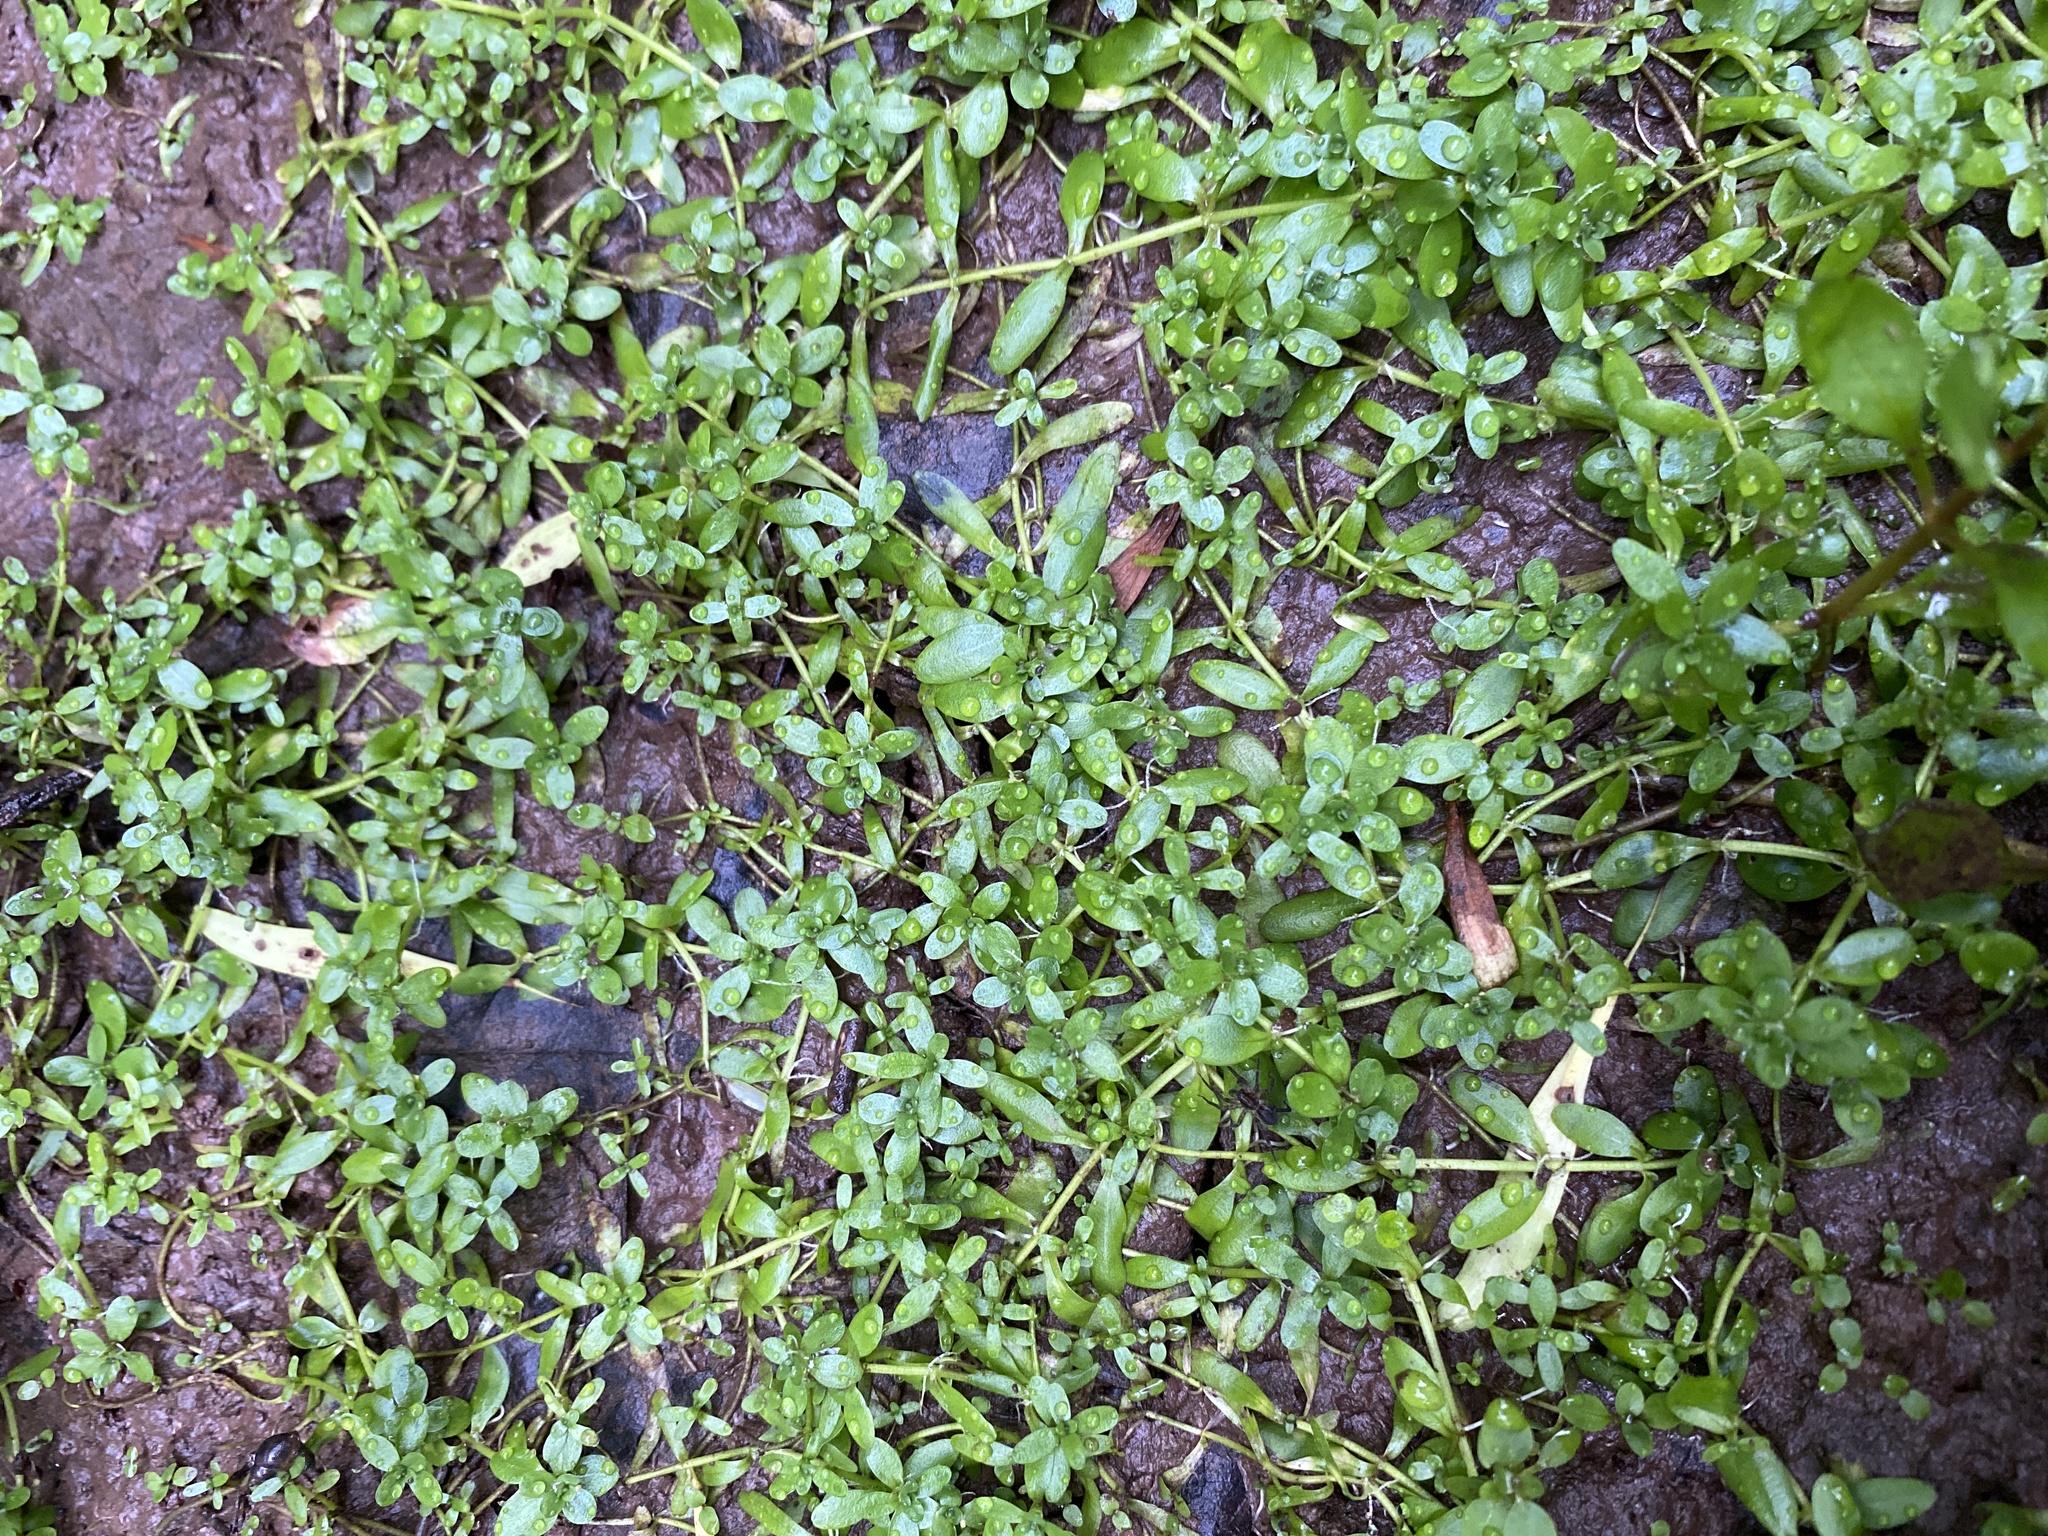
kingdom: Plantae
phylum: Tracheophyta
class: Magnoliopsida
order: Lamiales
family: Plantaginaceae
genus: Veronica
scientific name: Veronica peregrina
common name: Neckweed
